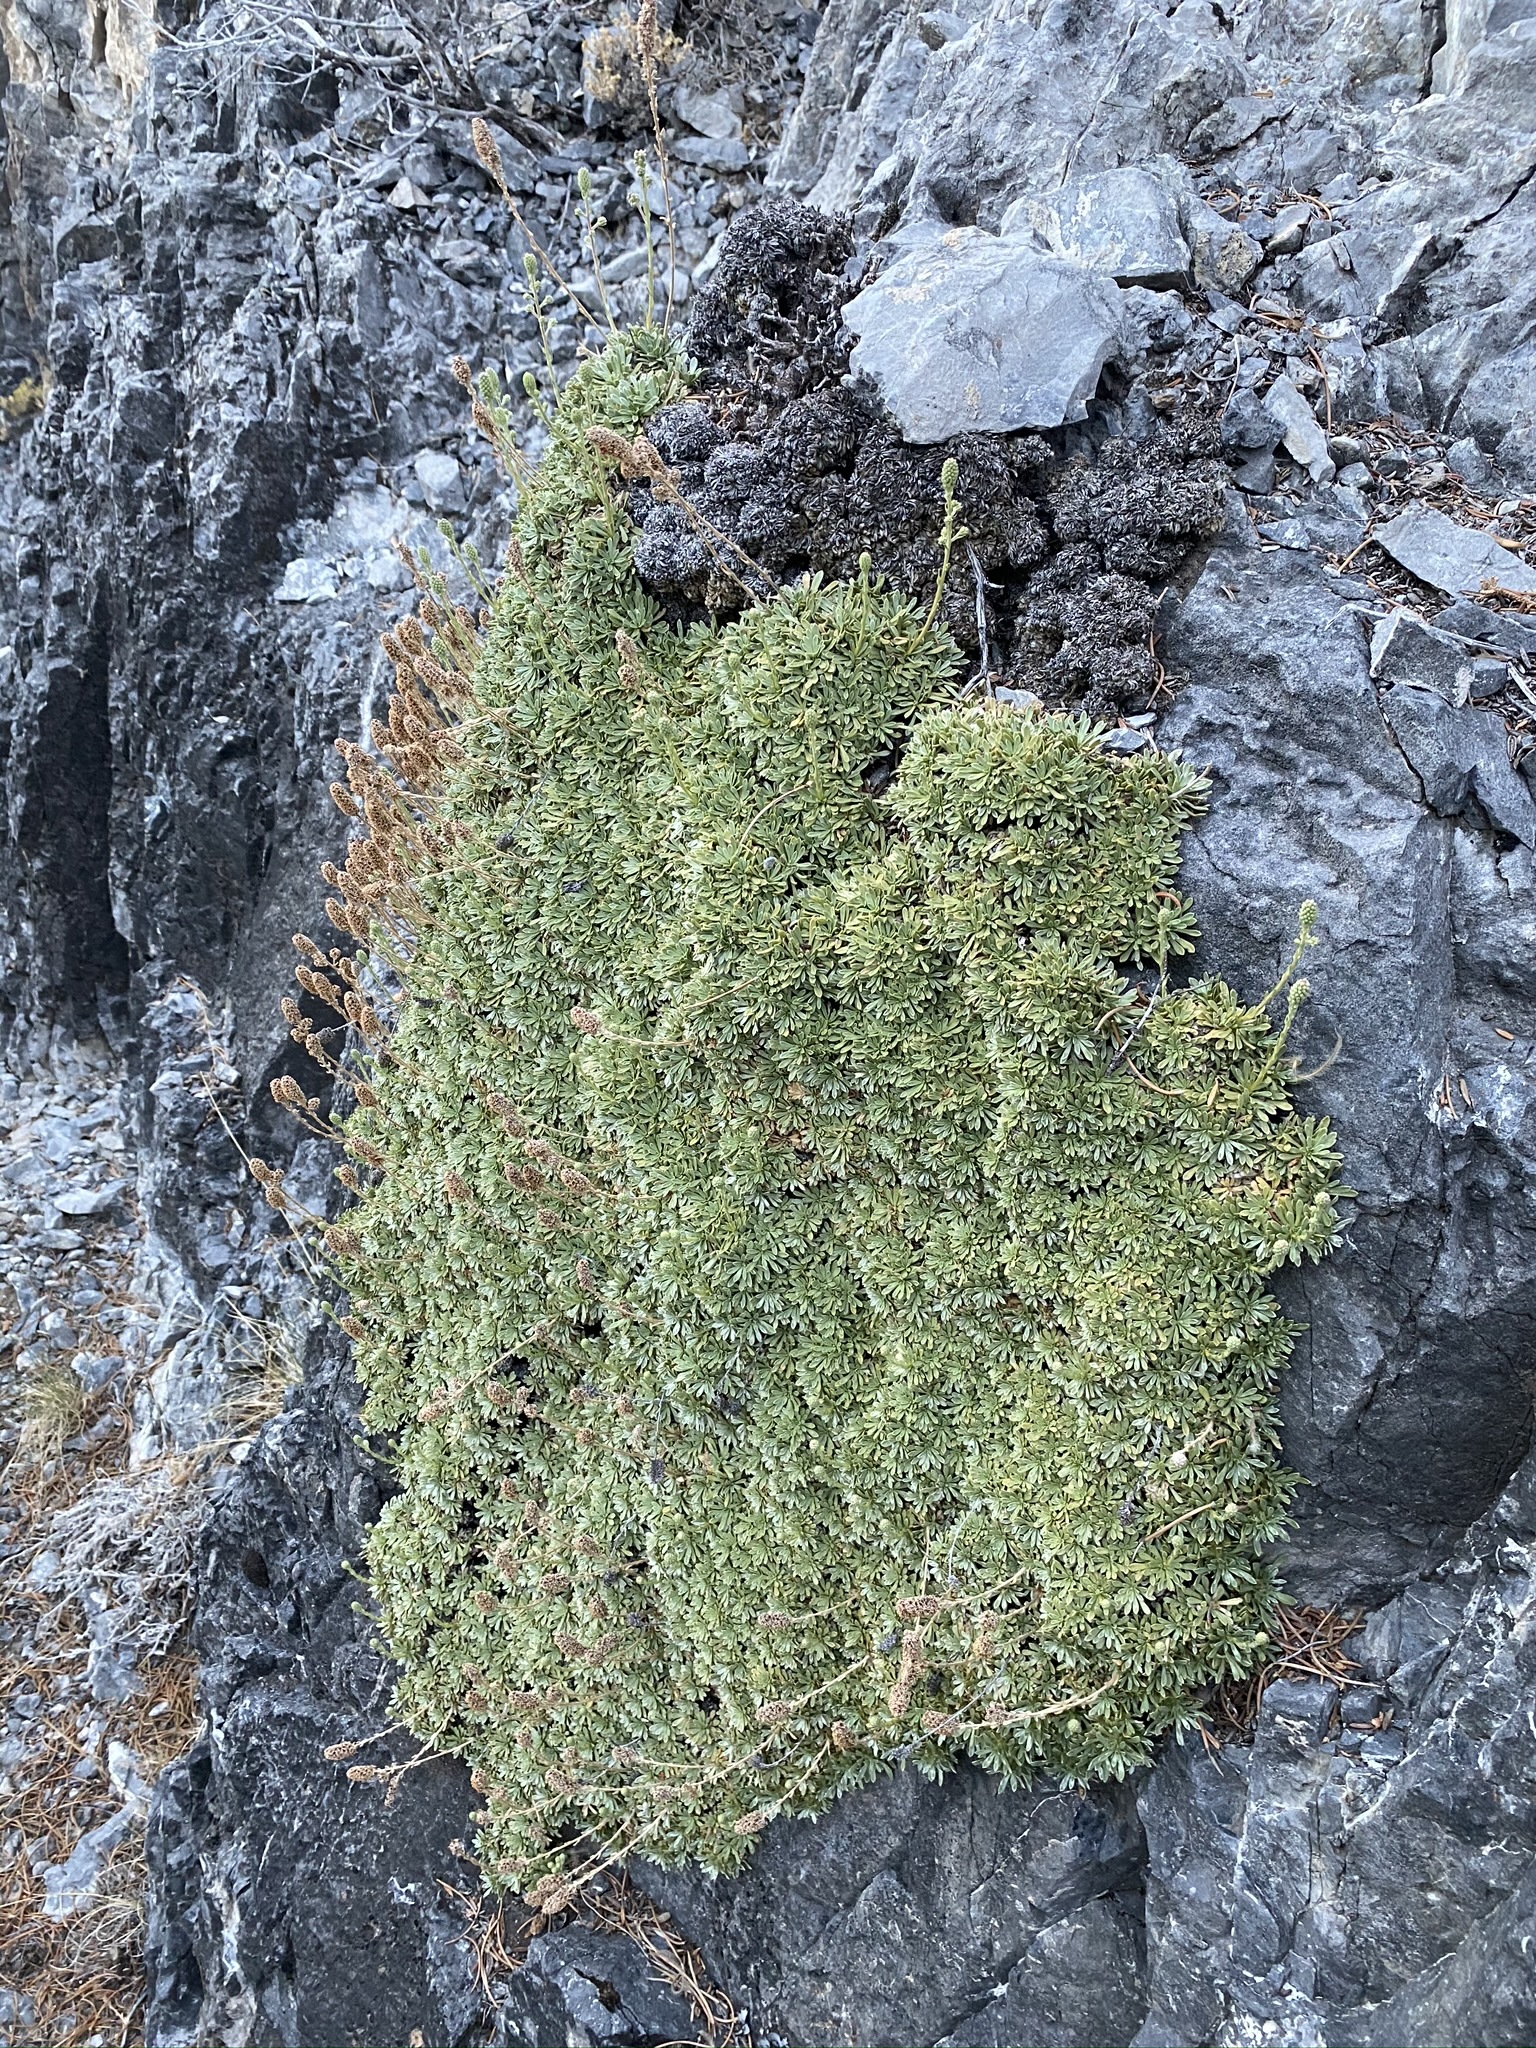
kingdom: Plantae
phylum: Tracheophyta
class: Magnoliopsida
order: Rosales
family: Rosaceae
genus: Petrophytum
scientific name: Petrophytum caespitosum
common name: Mat rockspirea
